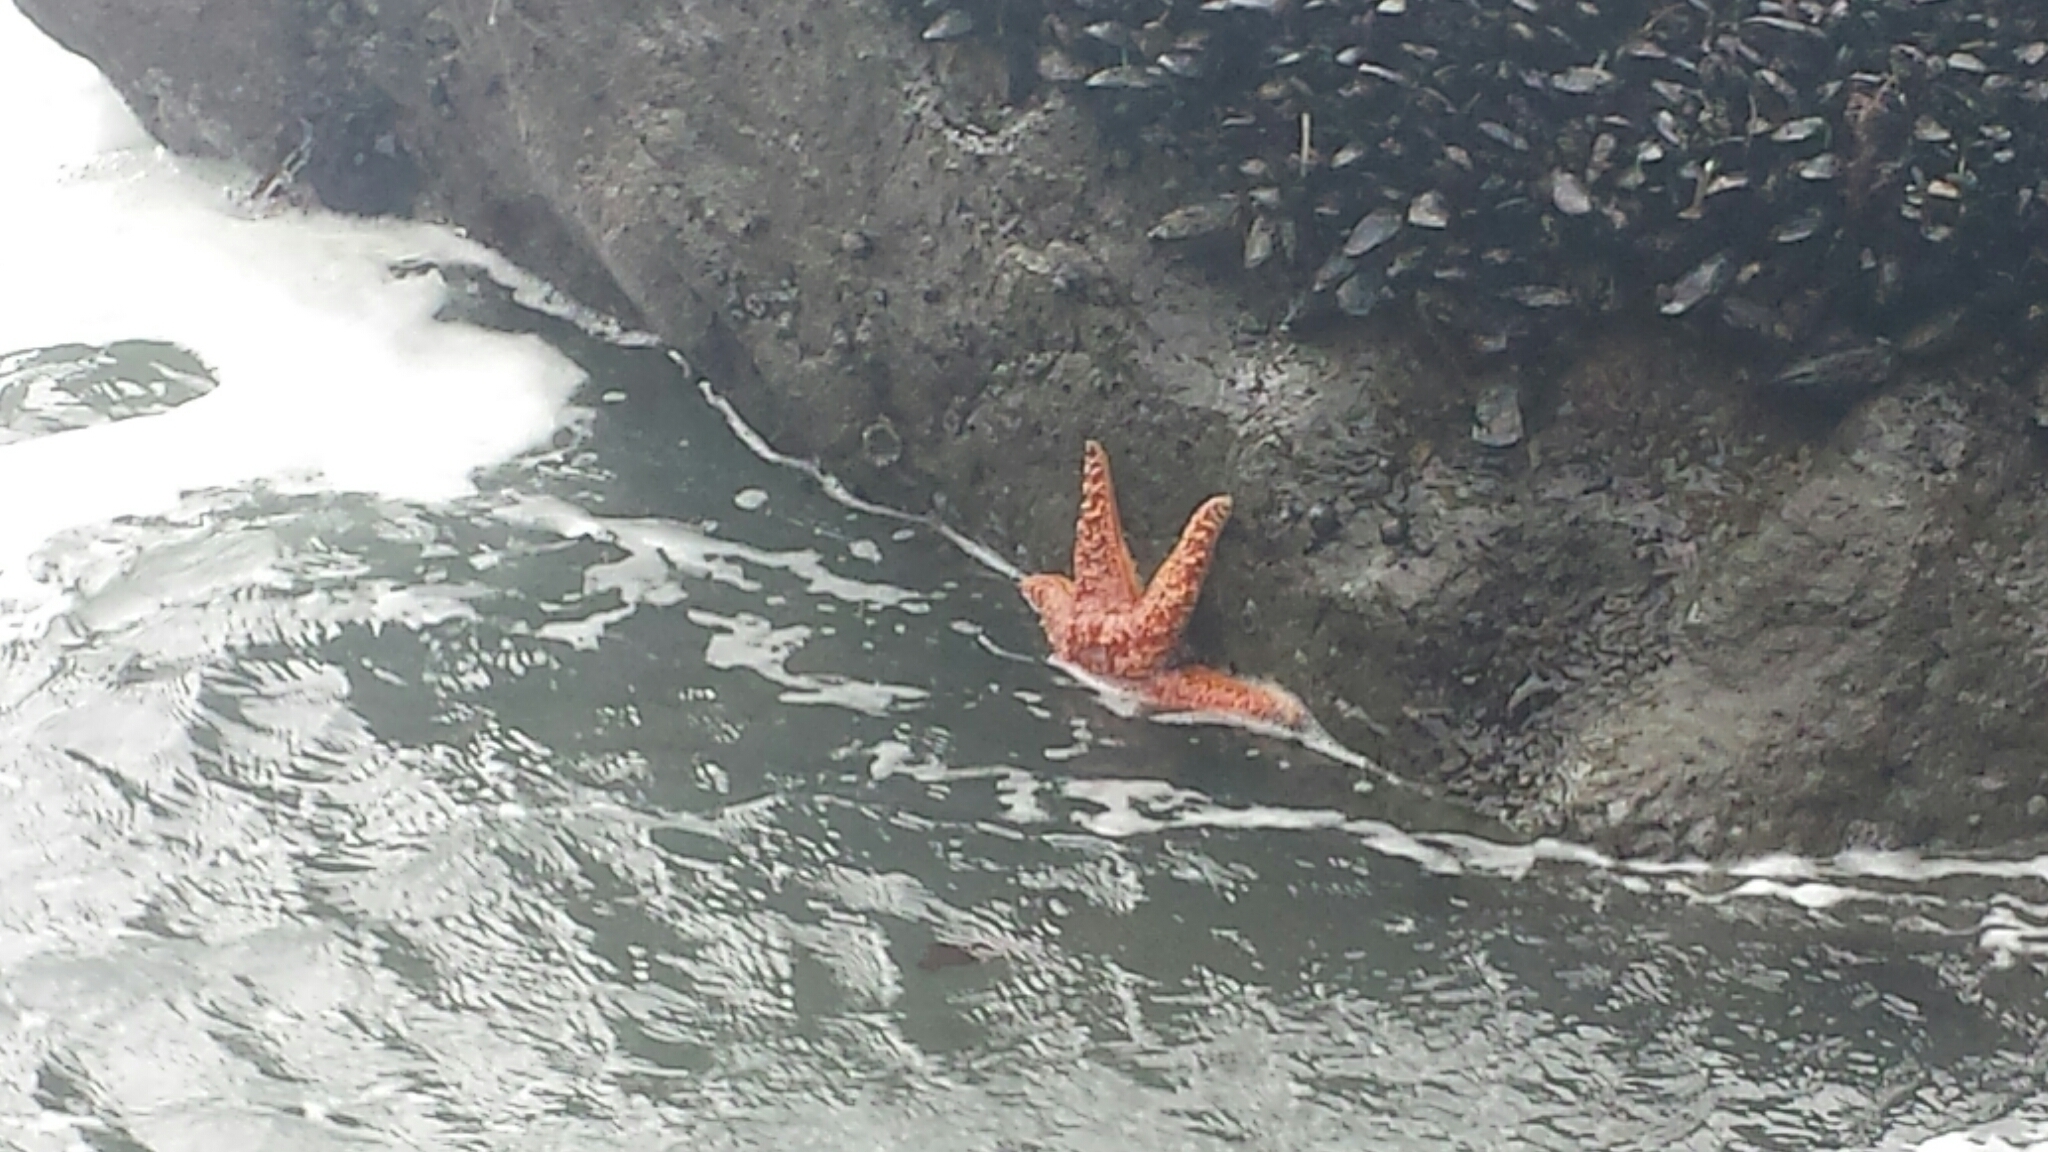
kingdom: Animalia
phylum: Echinodermata
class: Asteroidea
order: Forcipulatida
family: Asteriidae
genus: Pisaster
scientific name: Pisaster ochraceus
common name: Ochre stars
